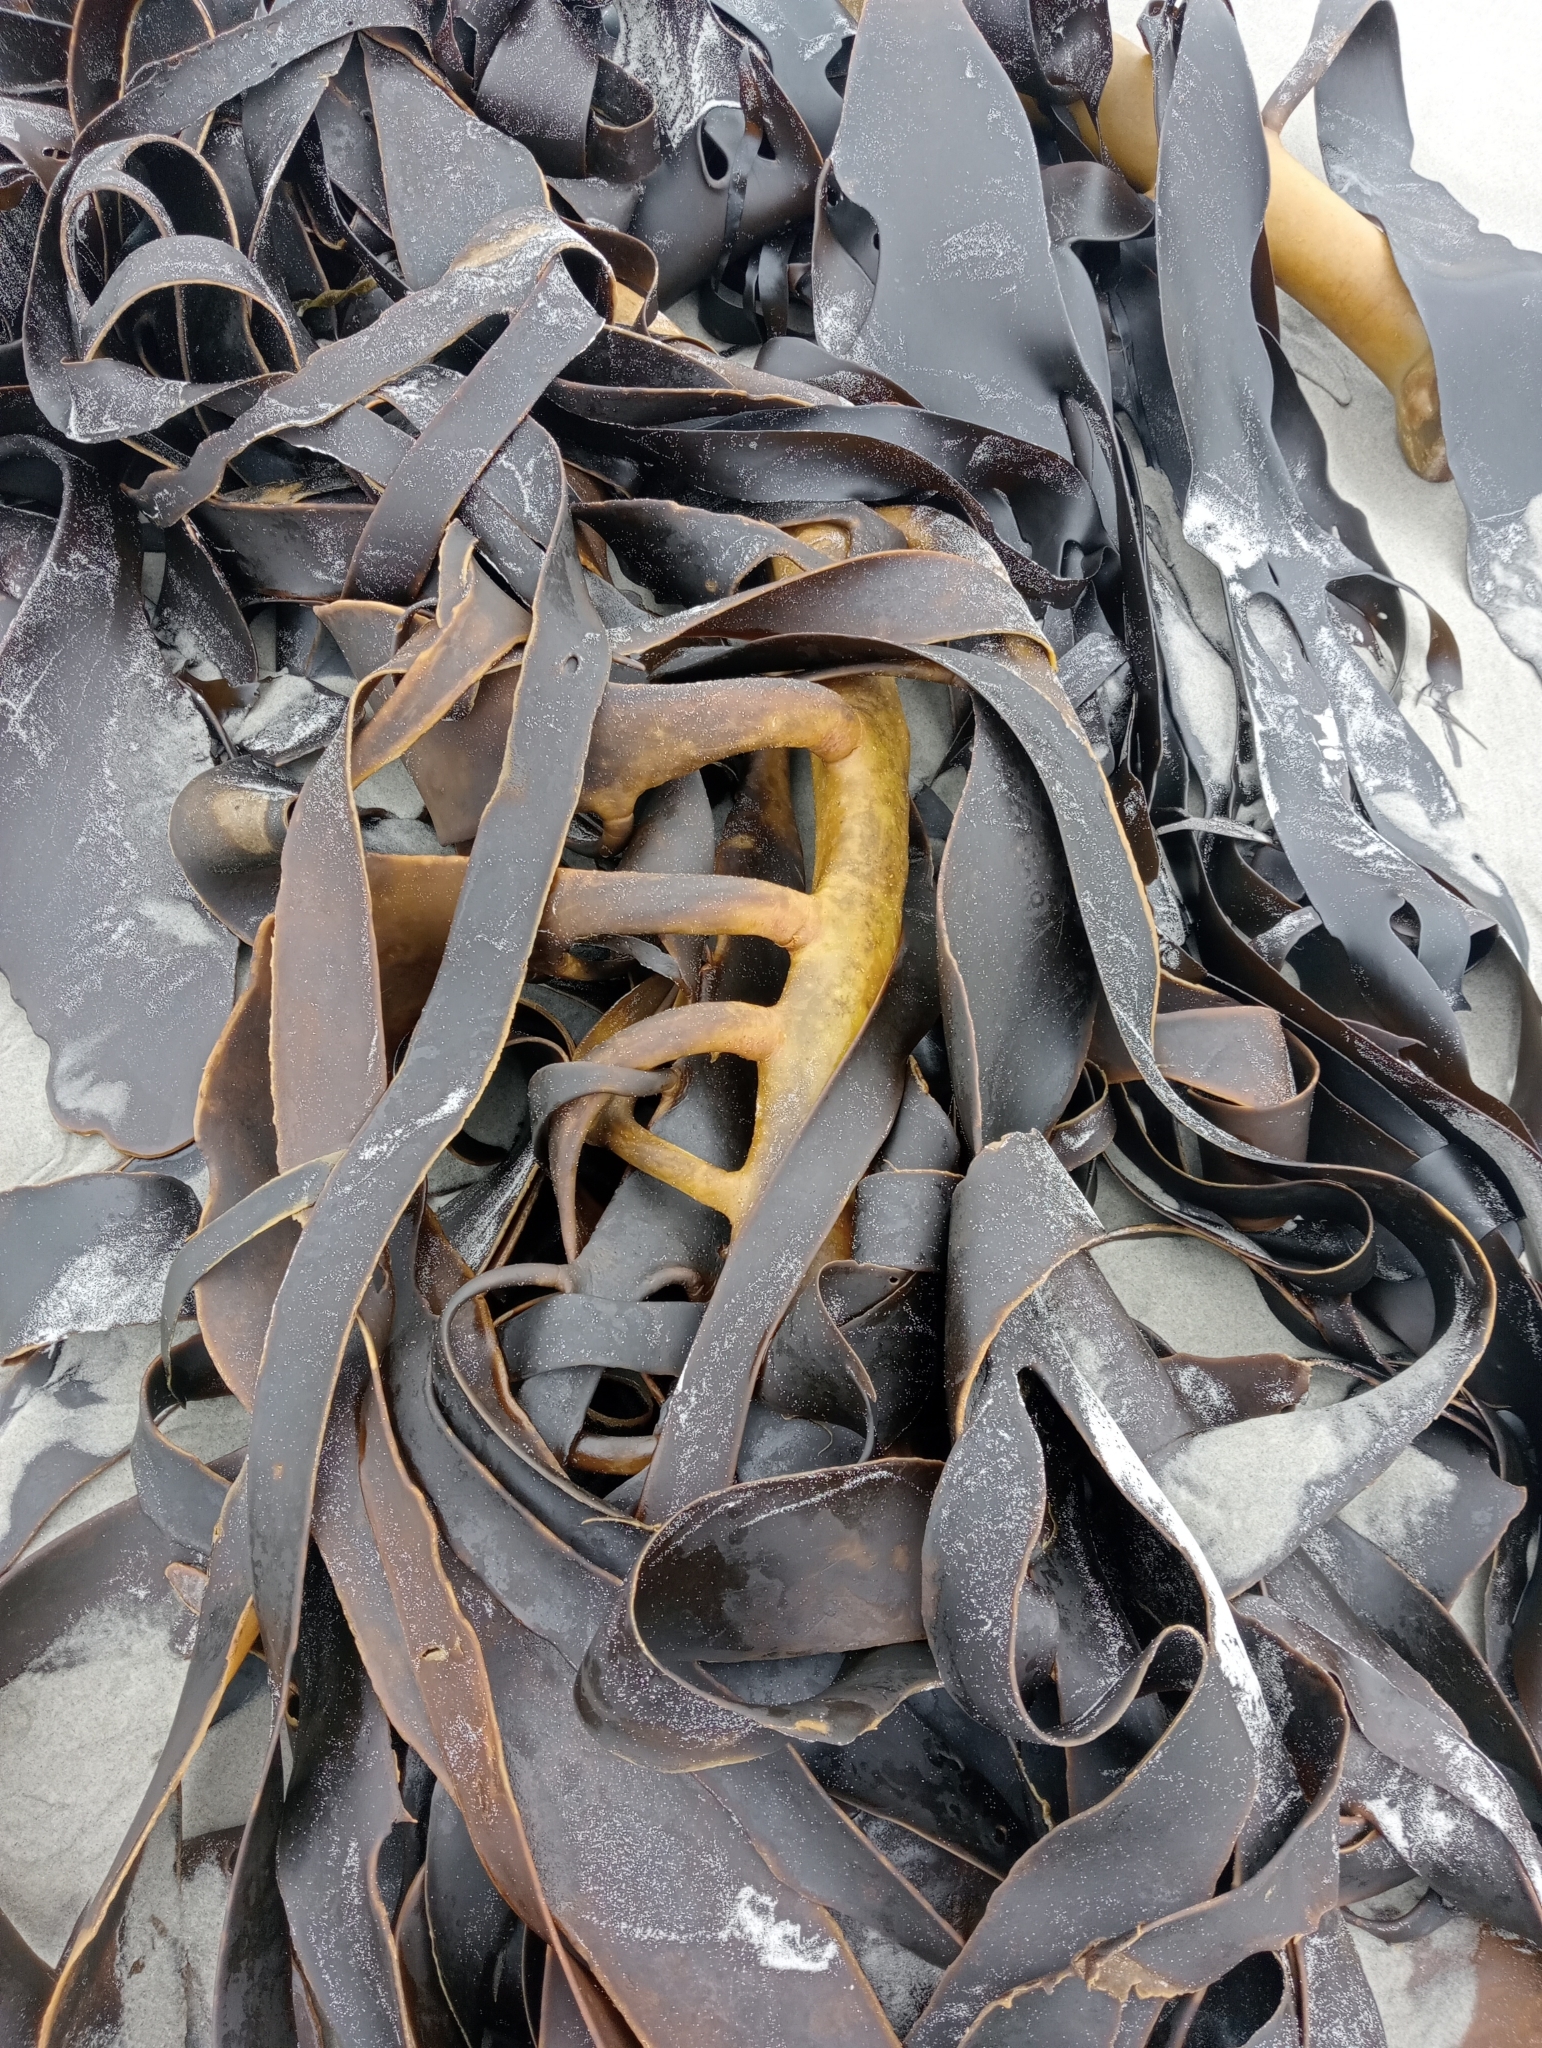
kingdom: Chromista
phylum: Ochrophyta
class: Phaeophyceae
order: Fucales
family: Durvillaeaceae
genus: Durvillaea
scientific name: Durvillaea willana
